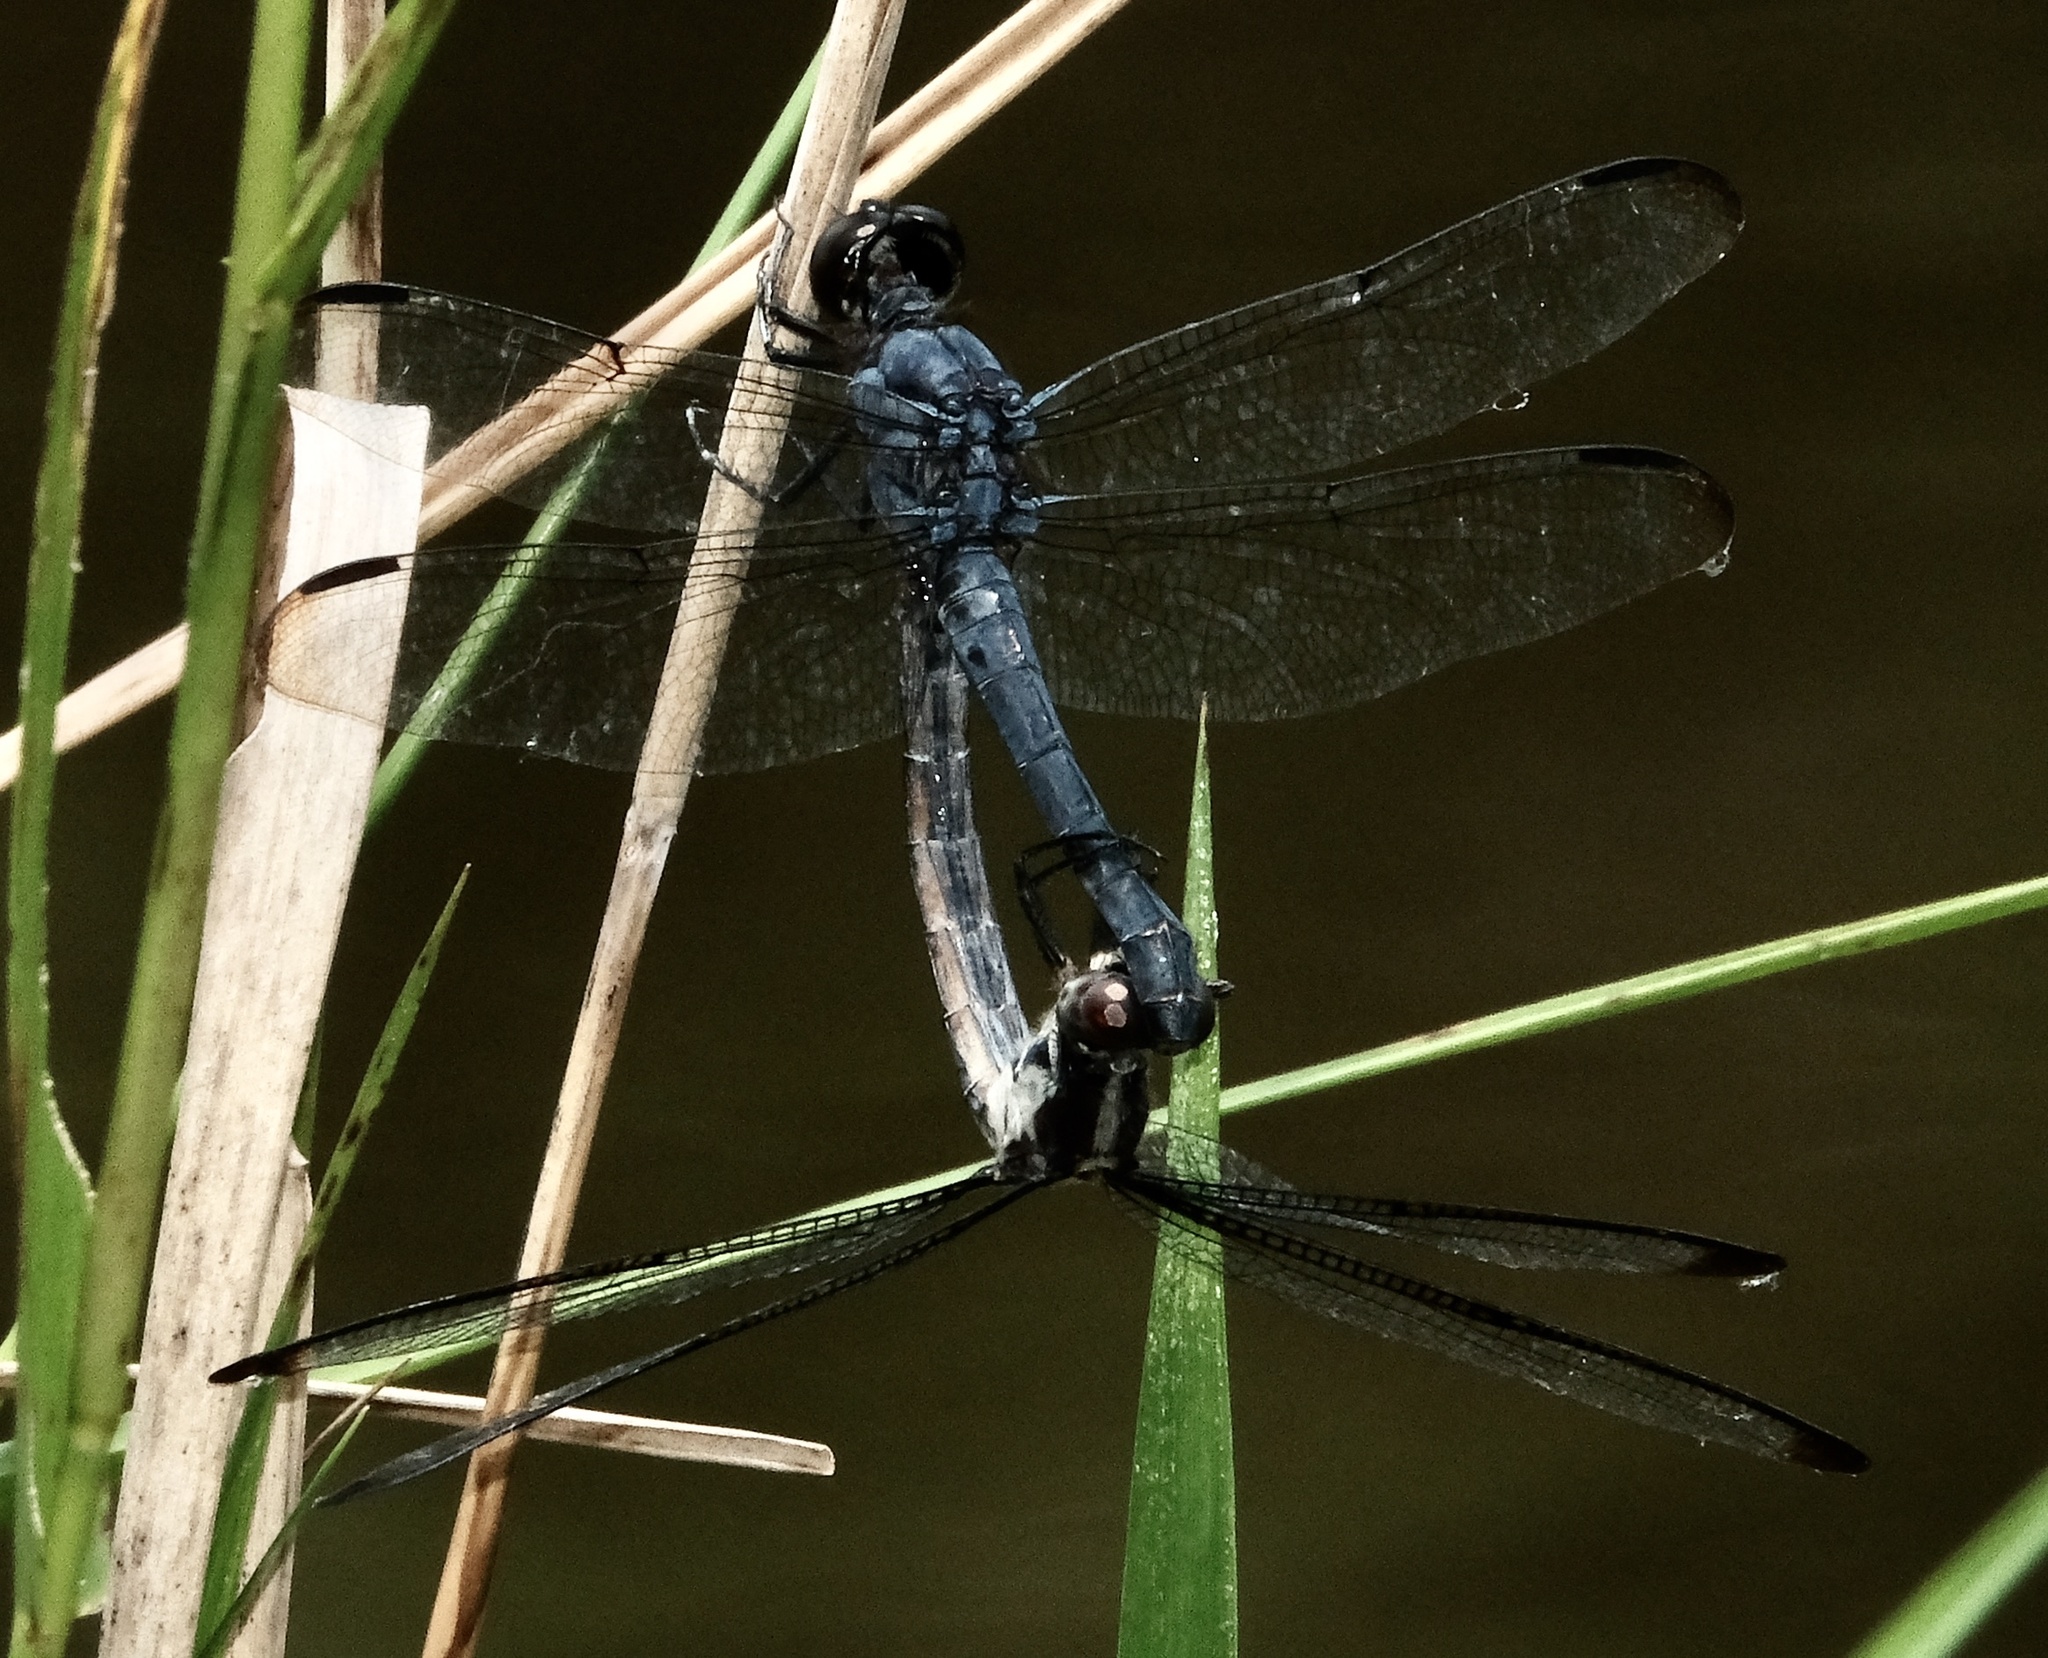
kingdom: Animalia
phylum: Arthropoda
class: Insecta
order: Odonata
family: Libellulidae
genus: Libellula
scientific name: Libellula incesta
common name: Slaty skimmer
